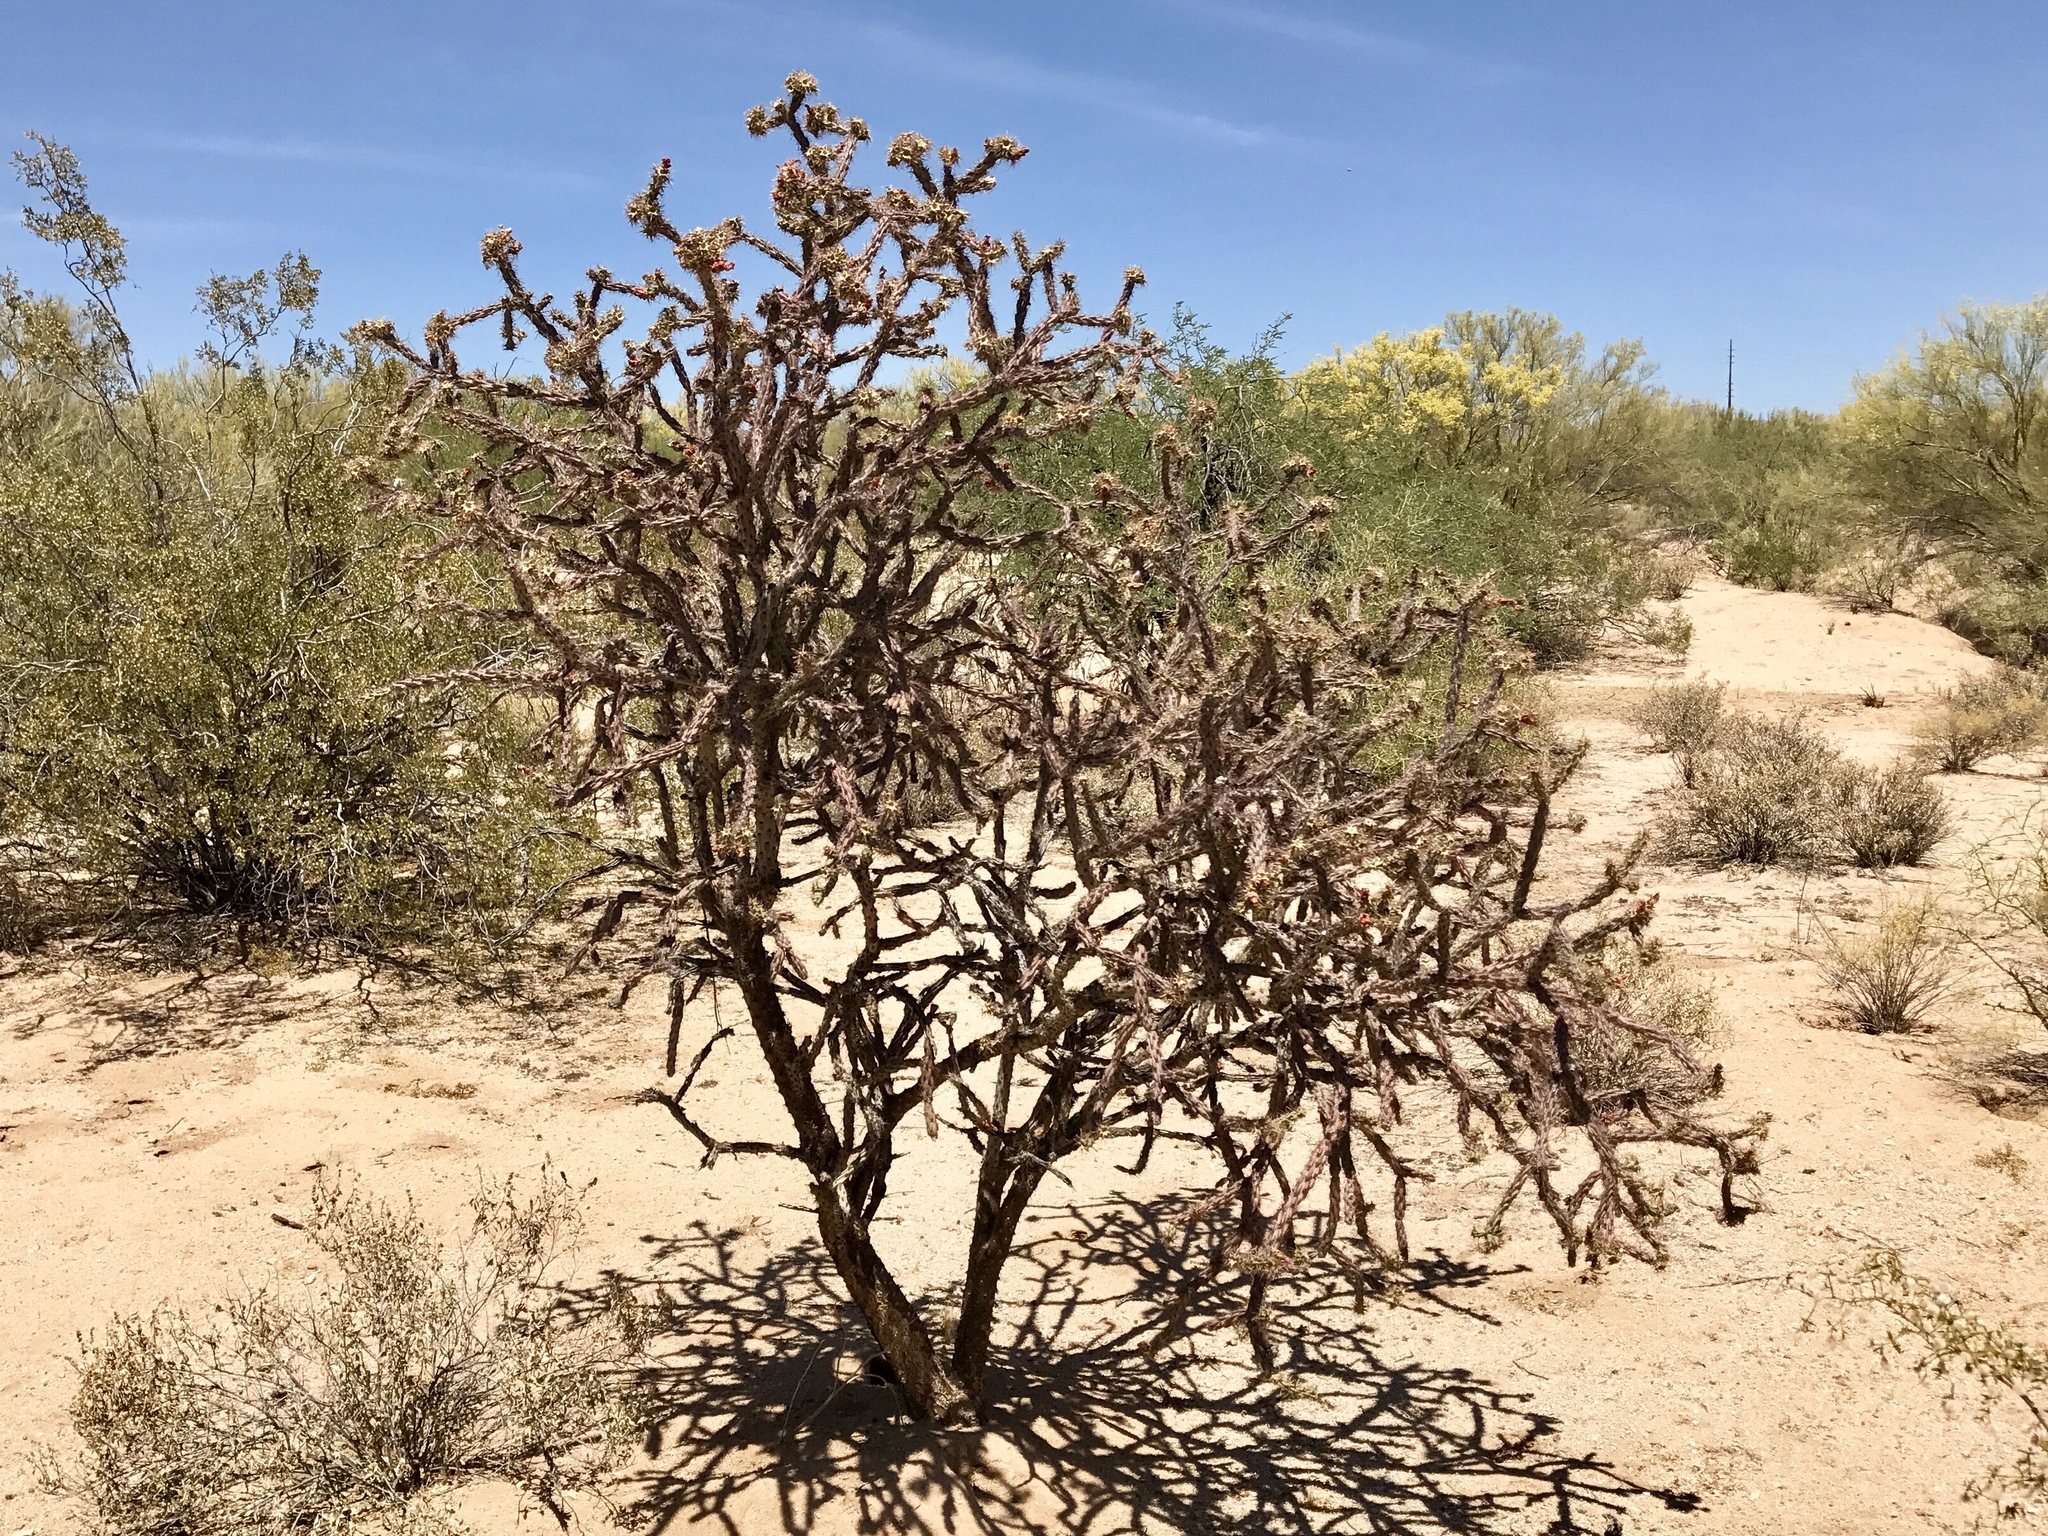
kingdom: Plantae
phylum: Tracheophyta
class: Magnoliopsida
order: Caryophyllales
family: Cactaceae
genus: Cylindropuntia
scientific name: Cylindropuntia thurberi
